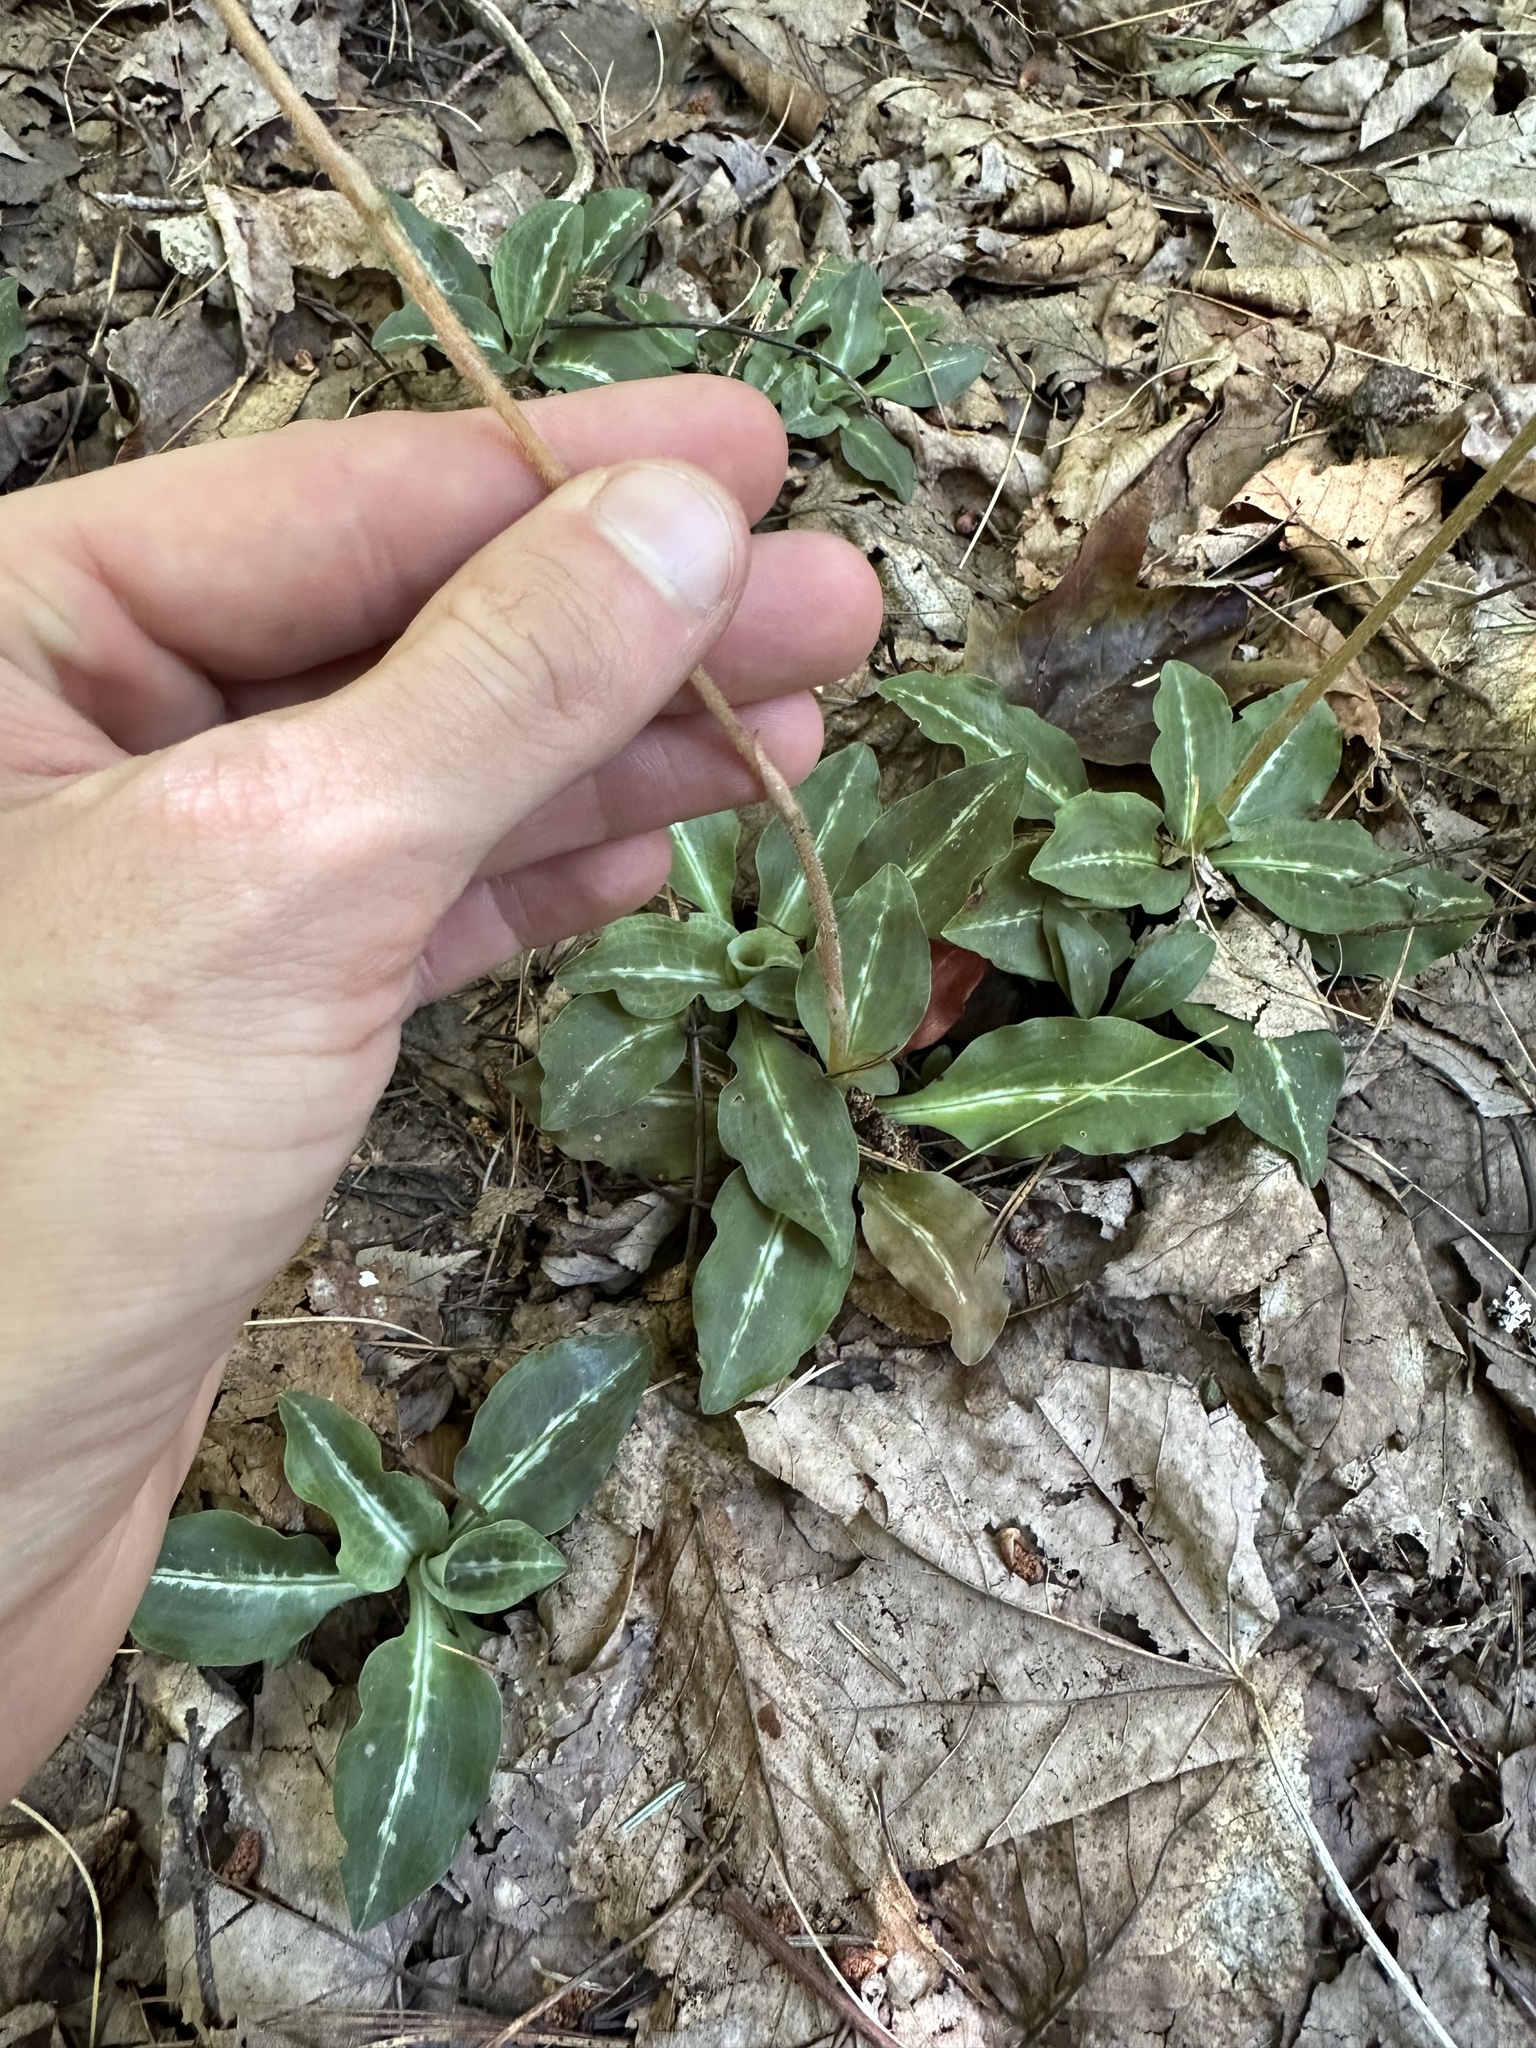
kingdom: Plantae
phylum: Tracheophyta
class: Liliopsida
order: Asparagales
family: Orchidaceae
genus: Goodyera
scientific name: Goodyera oblongifolia
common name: Giant rattlesnake-plantain
